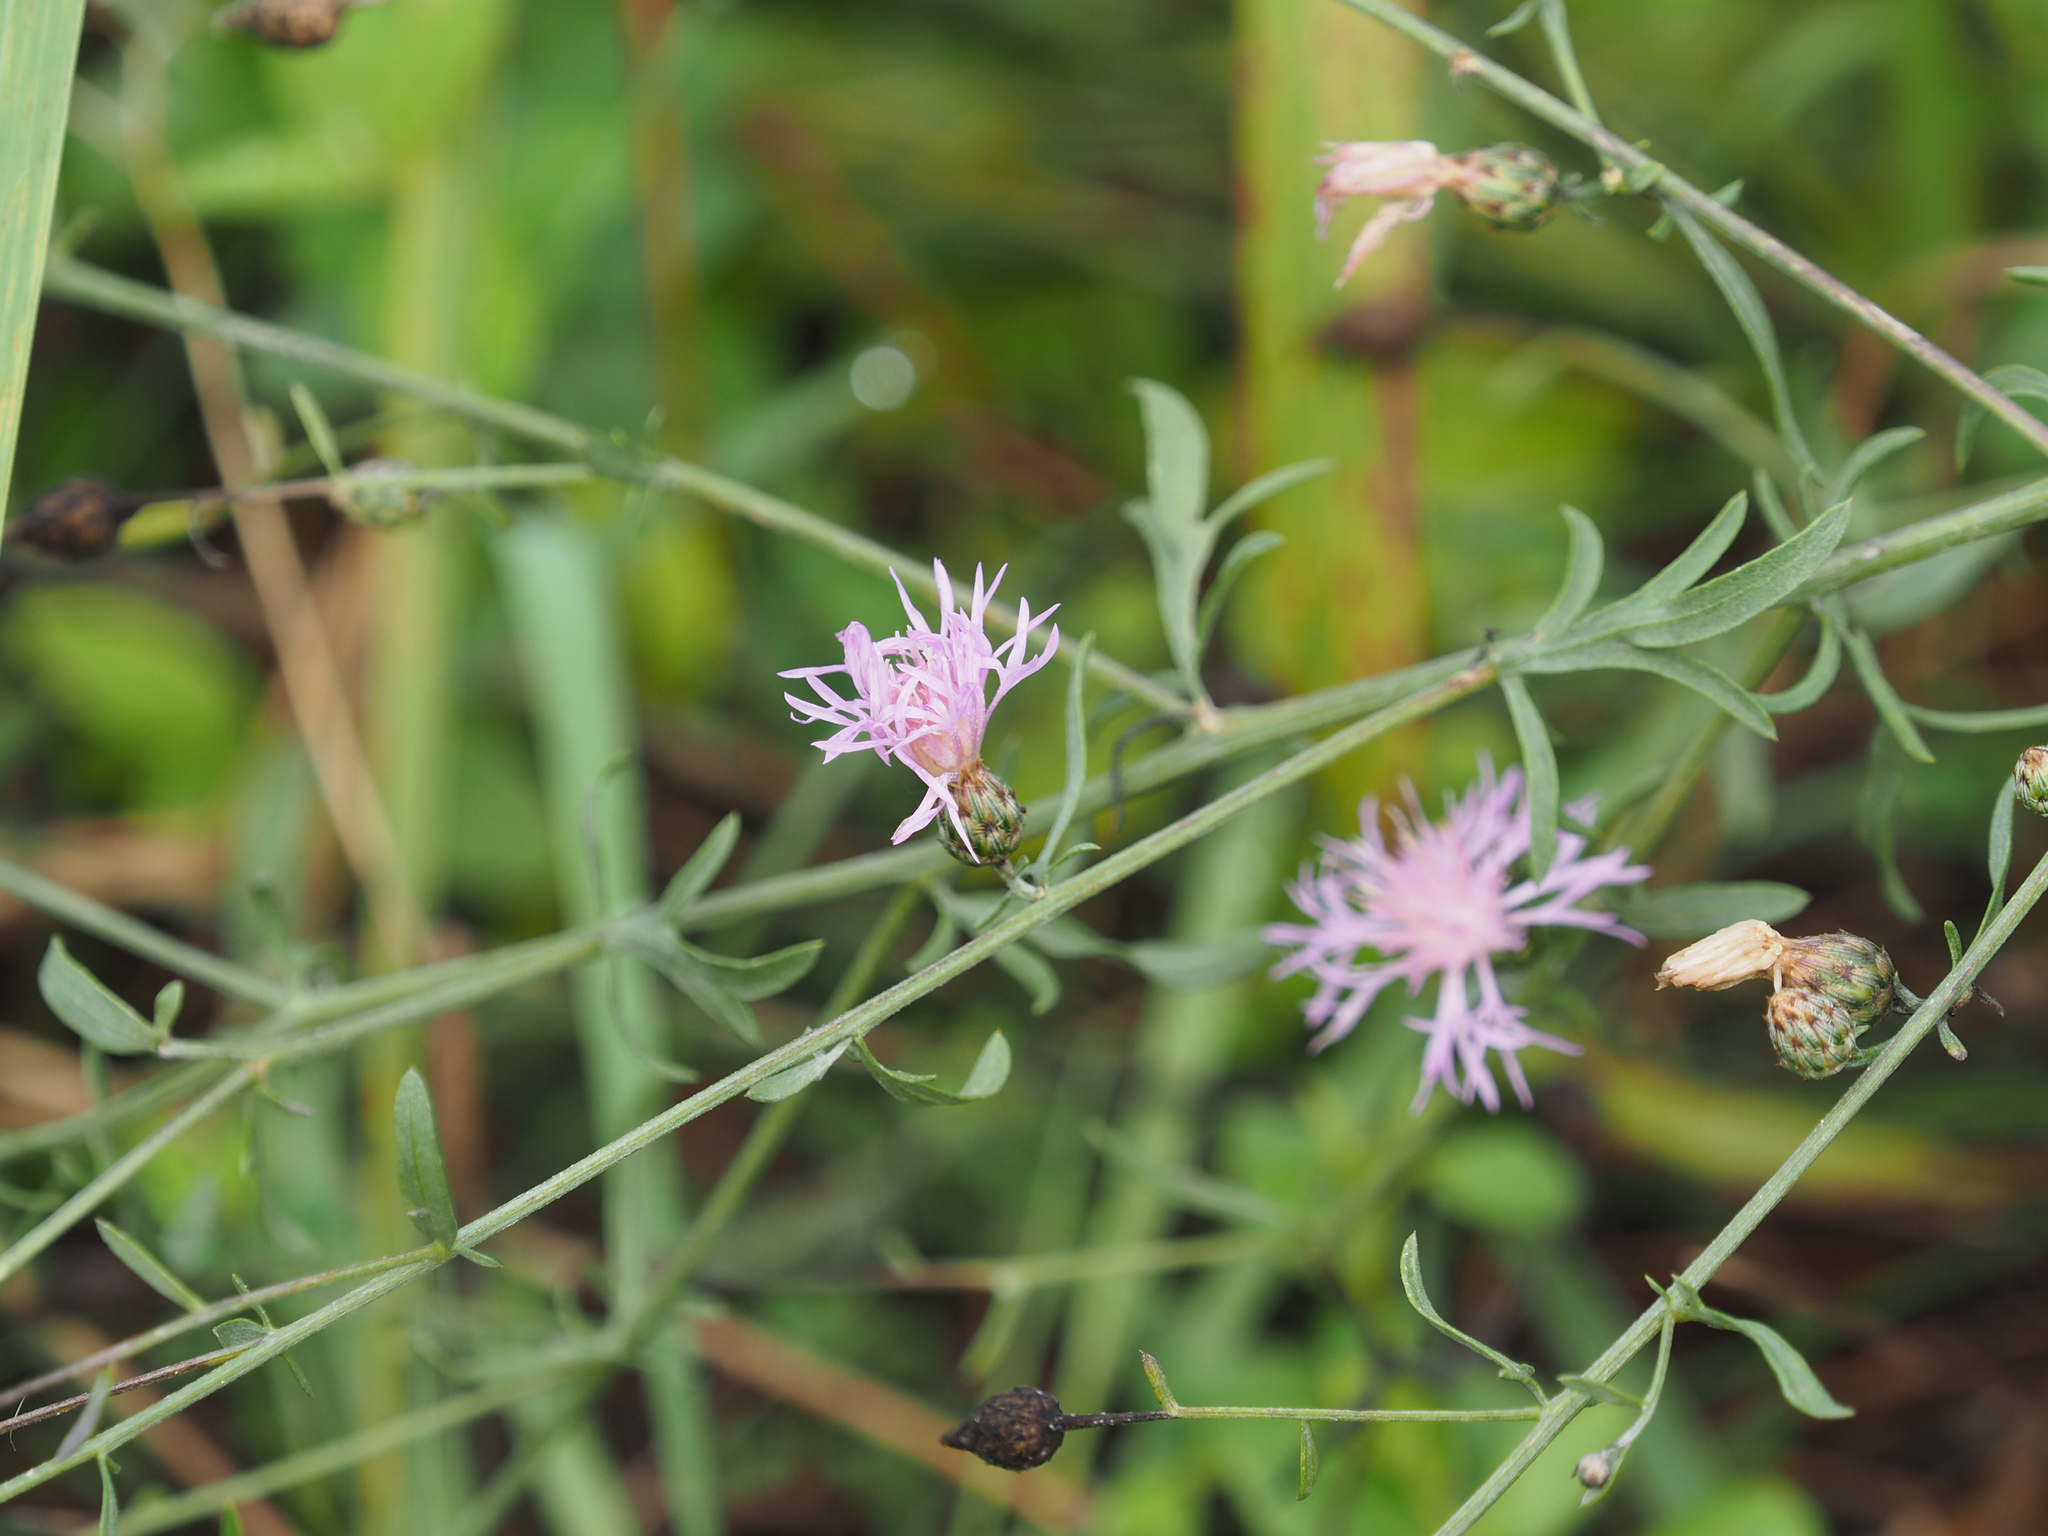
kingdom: Plantae
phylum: Tracheophyta
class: Magnoliopsida
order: Asterales
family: Asteraceae
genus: Centaurea
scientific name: Centaurea stoebe
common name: Spotted knapweed
